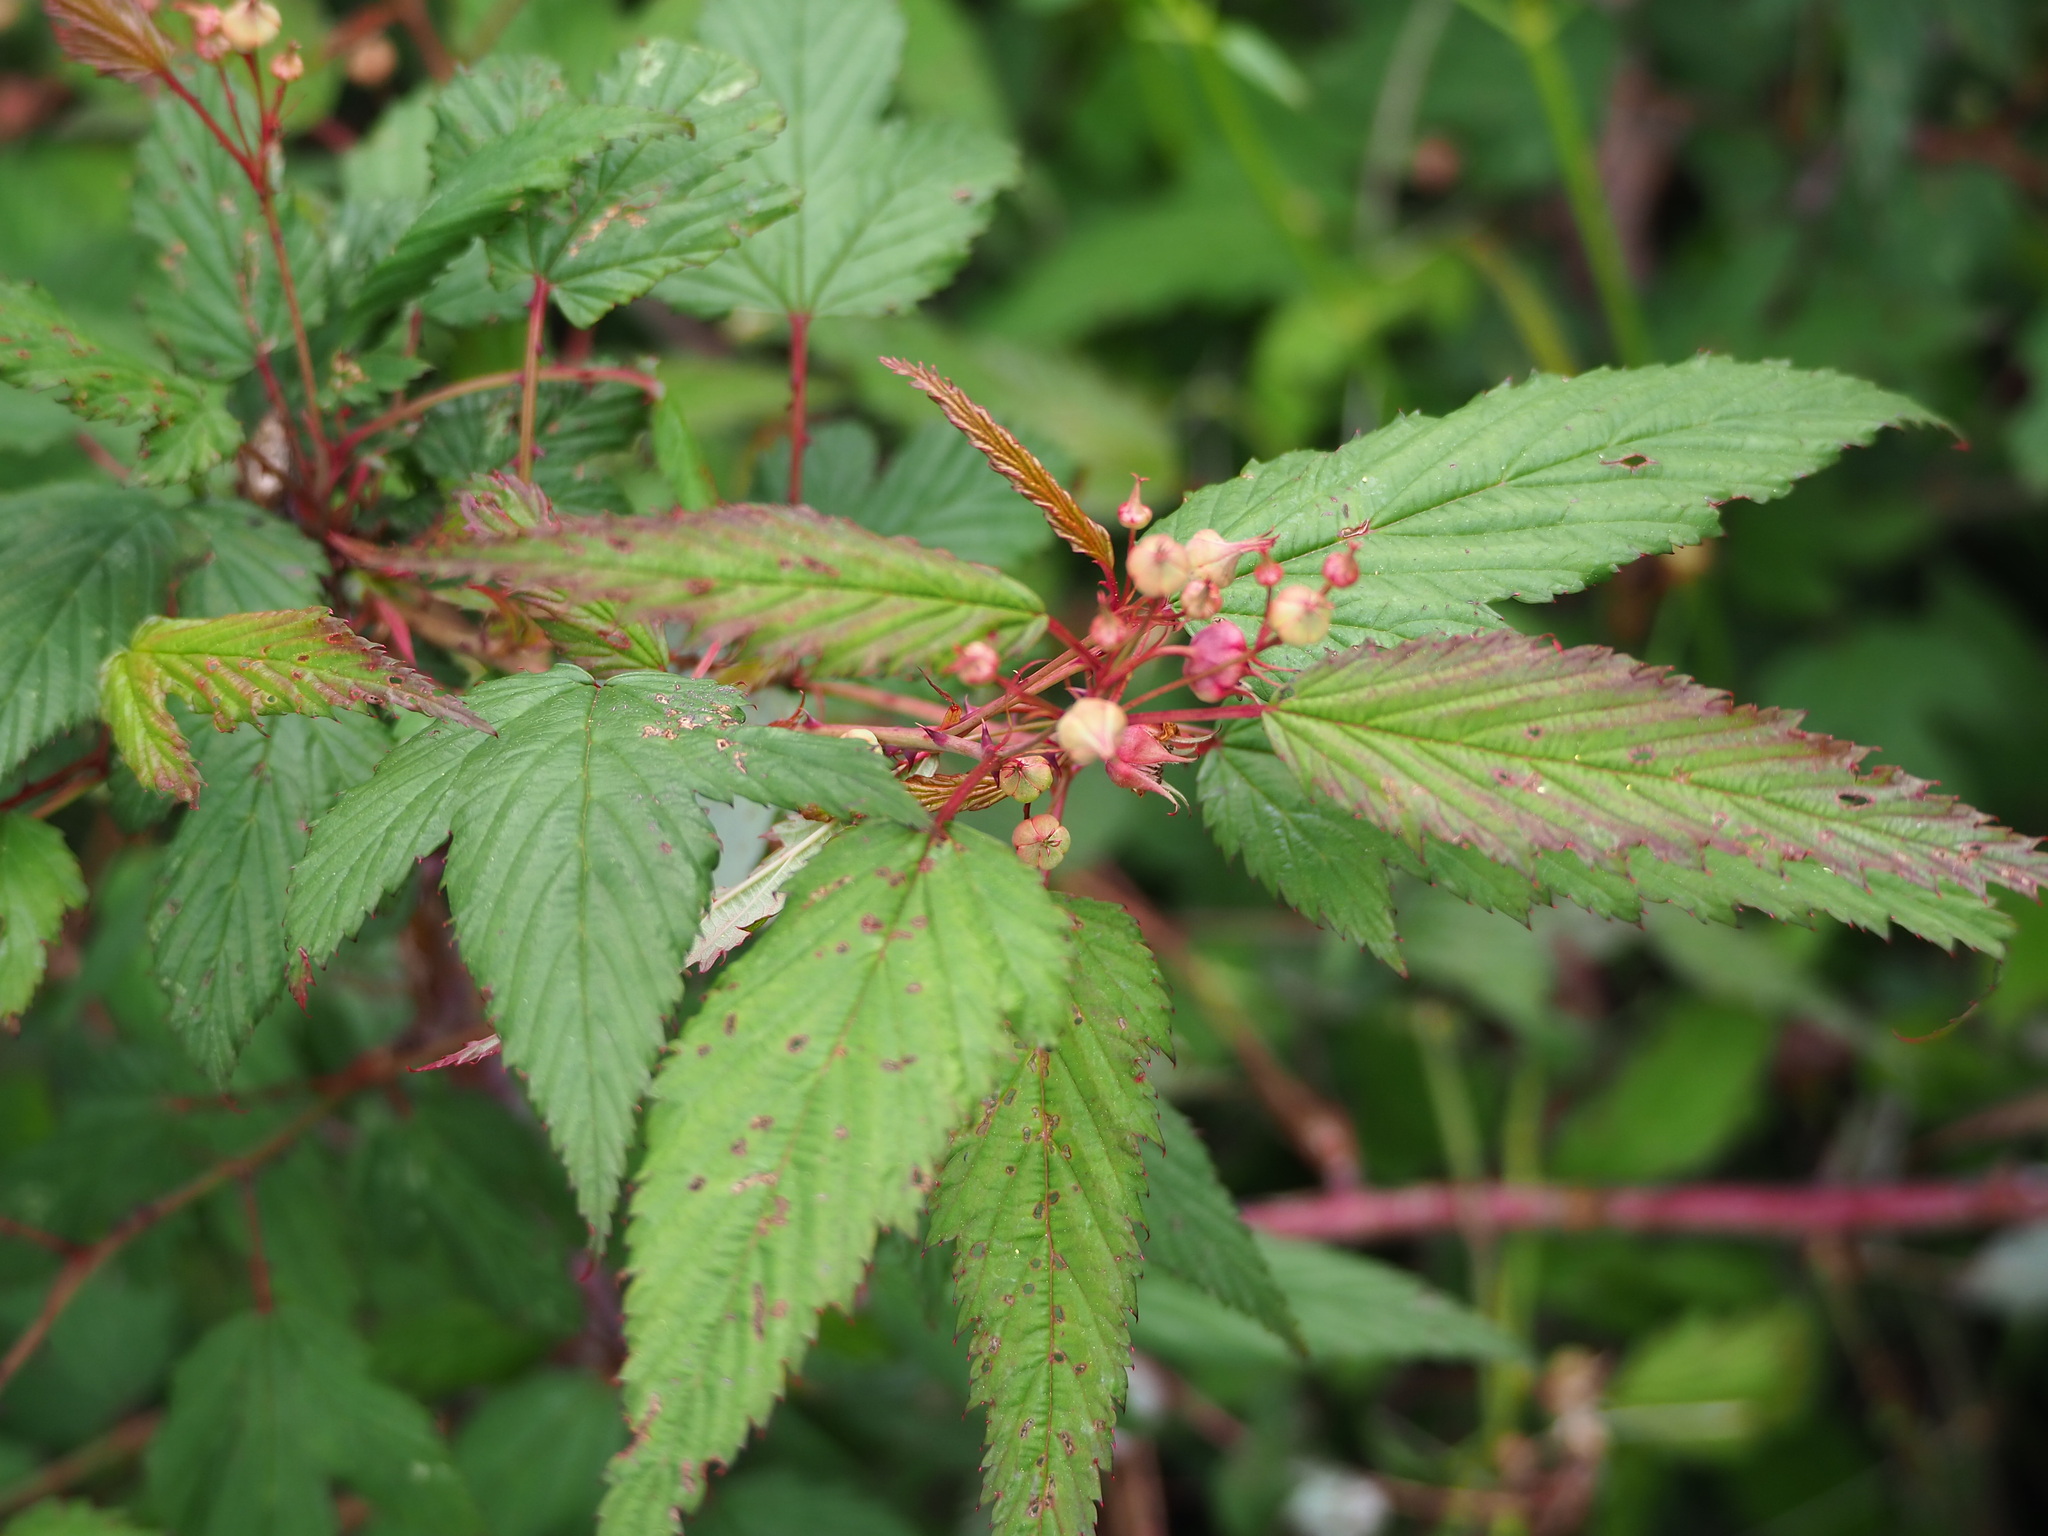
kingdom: Plantae
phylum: Tracheophyta
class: Magnoliopsida
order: Rosales
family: Rosaceae
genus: Rubus
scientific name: Rubus subcrataegifolius
